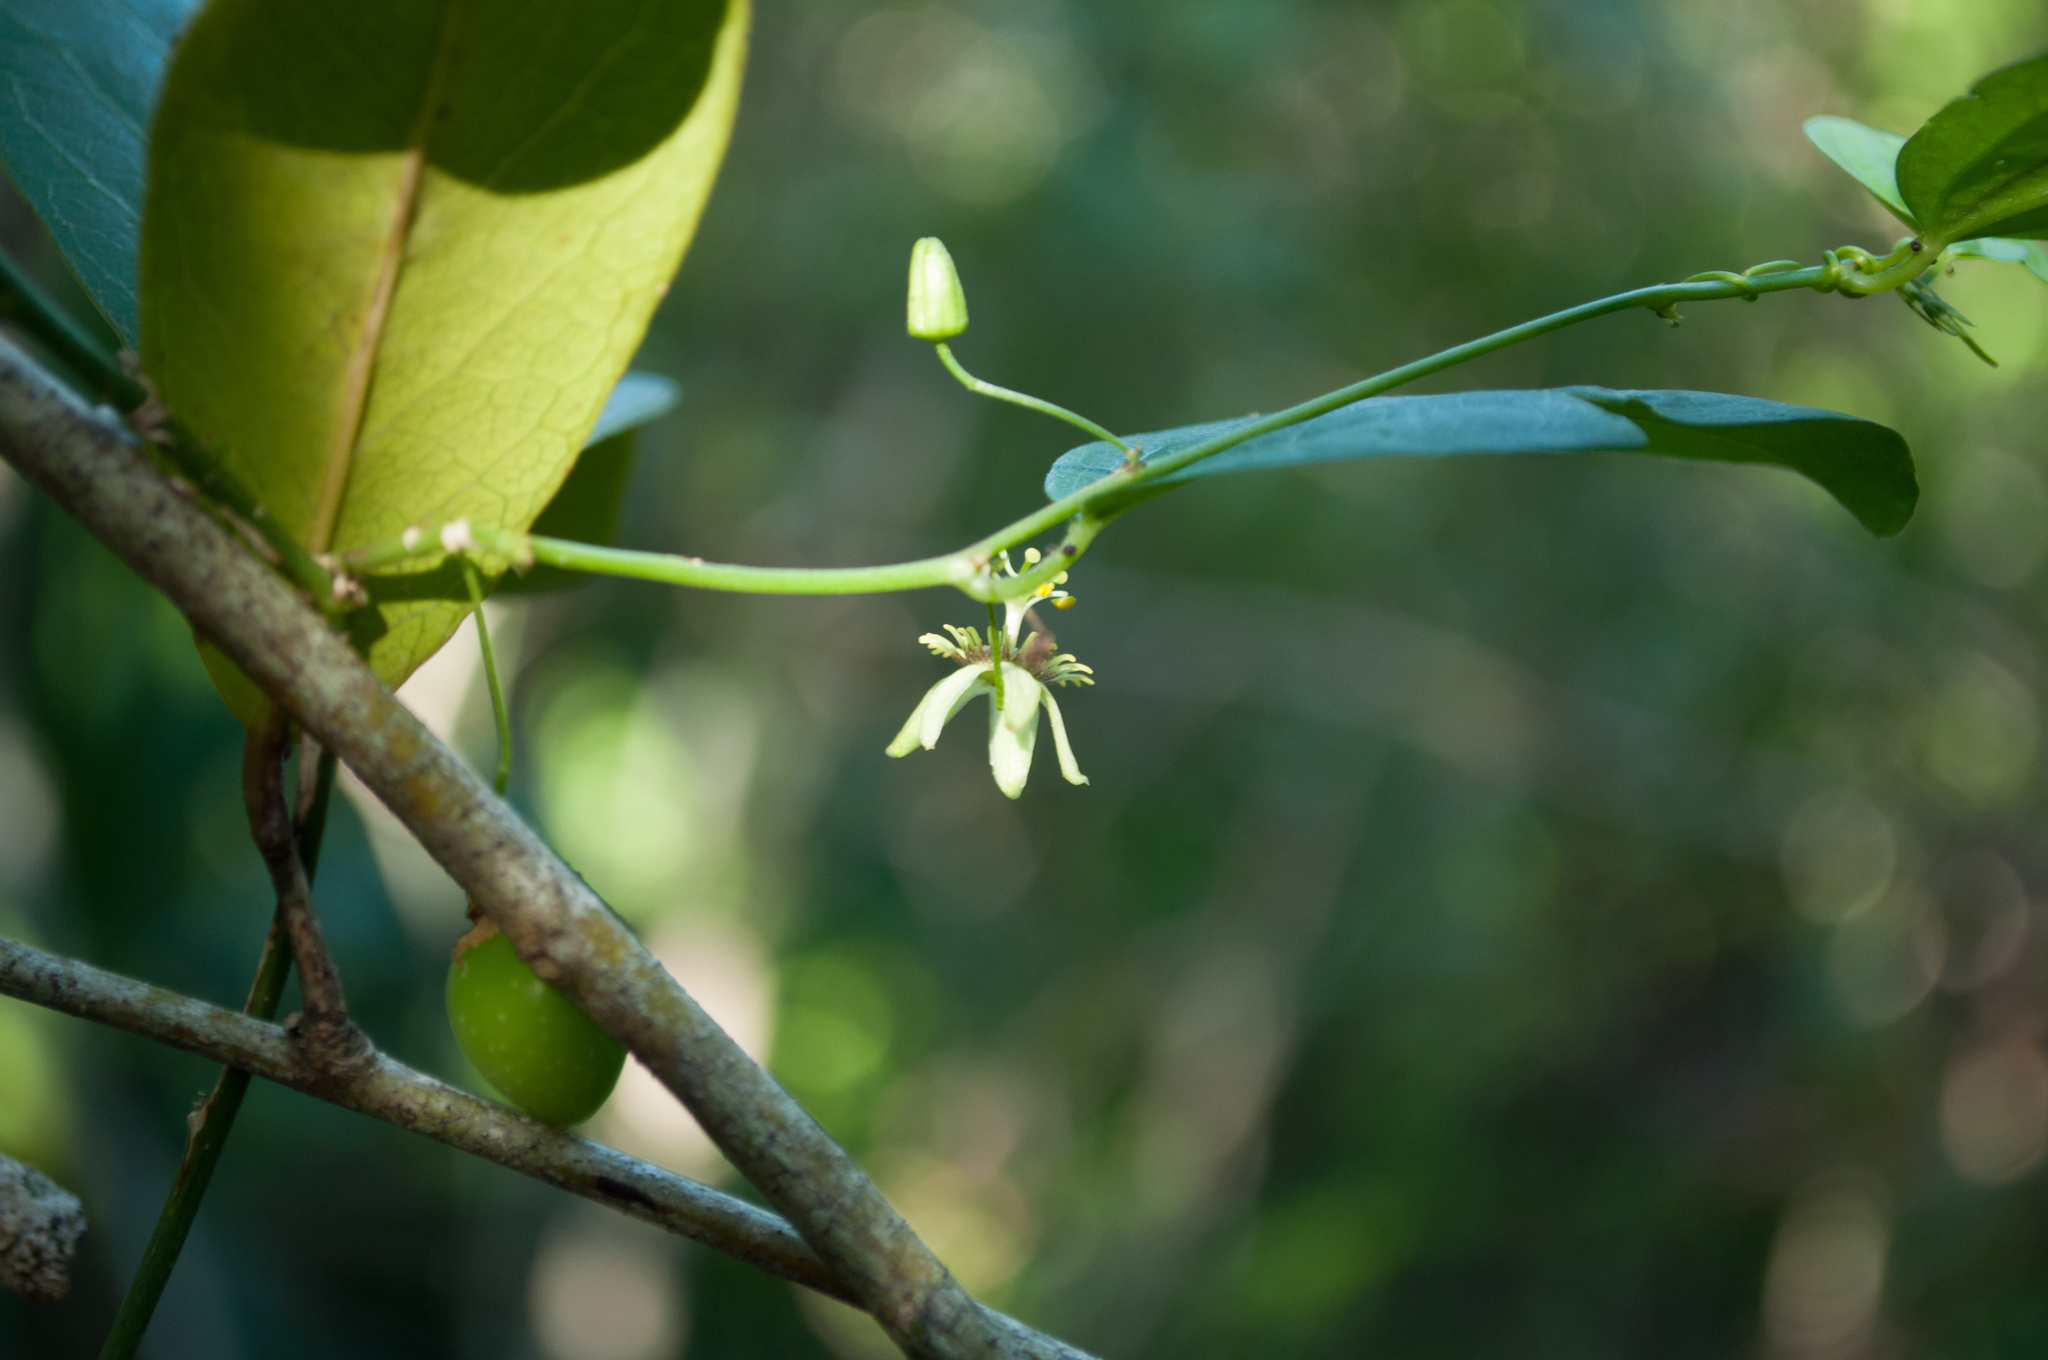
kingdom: Plantae
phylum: Tracheophyta
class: Magnoliopsida
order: Malpighiales
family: Passifloraceae
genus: Passiflora
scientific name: Passiflora pallida
